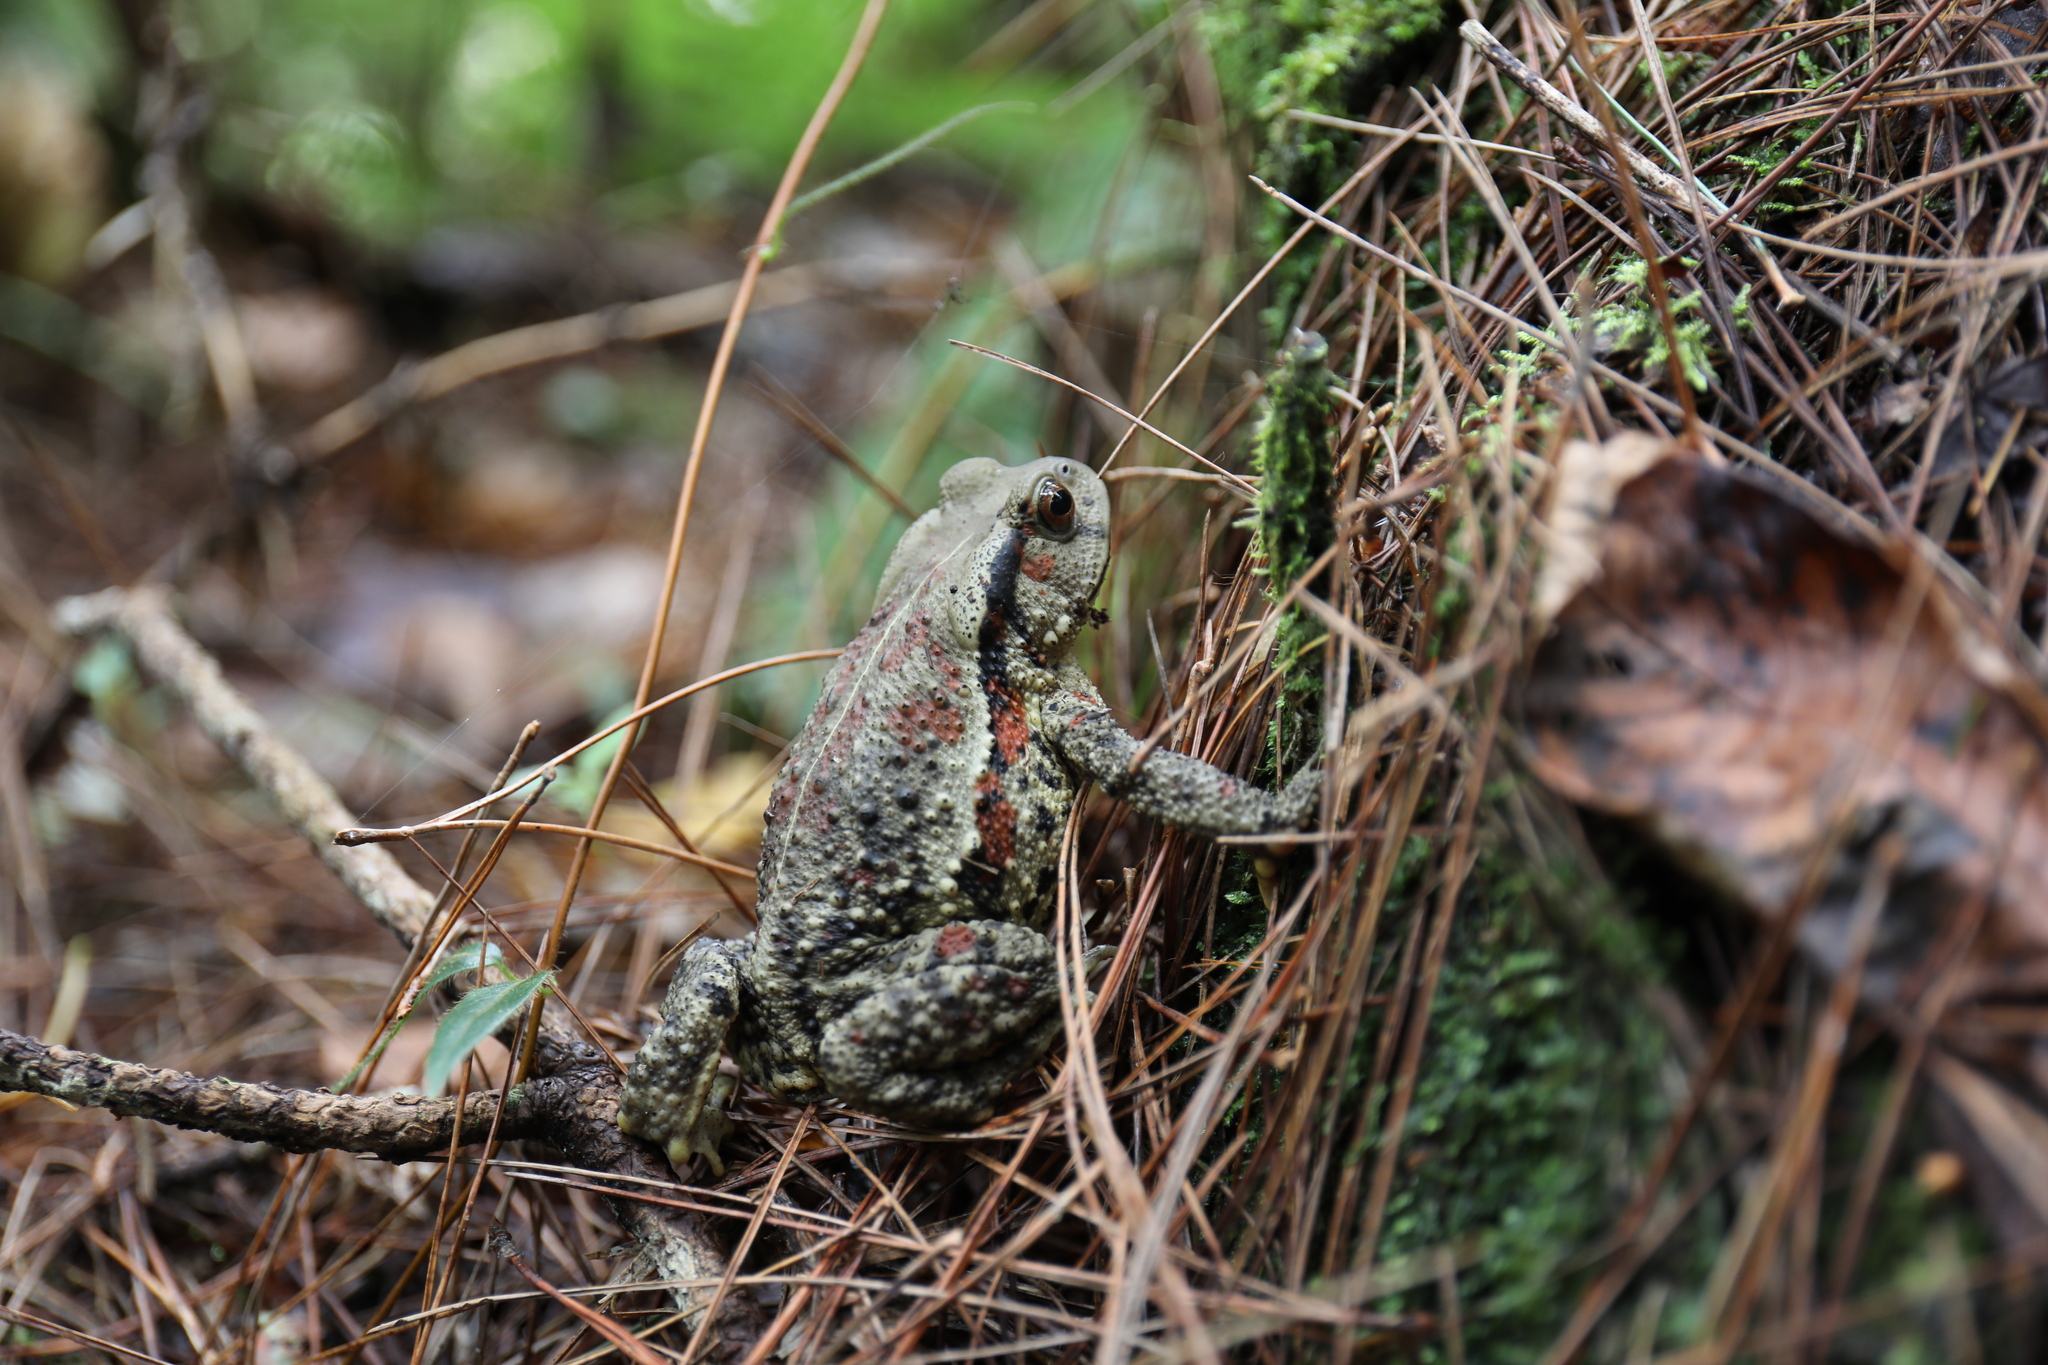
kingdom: Animalia
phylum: Chordata
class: Amphibia
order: Anura
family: Bufonidae
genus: Bufo
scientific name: Bufo bankorensis
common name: Bankor toad
